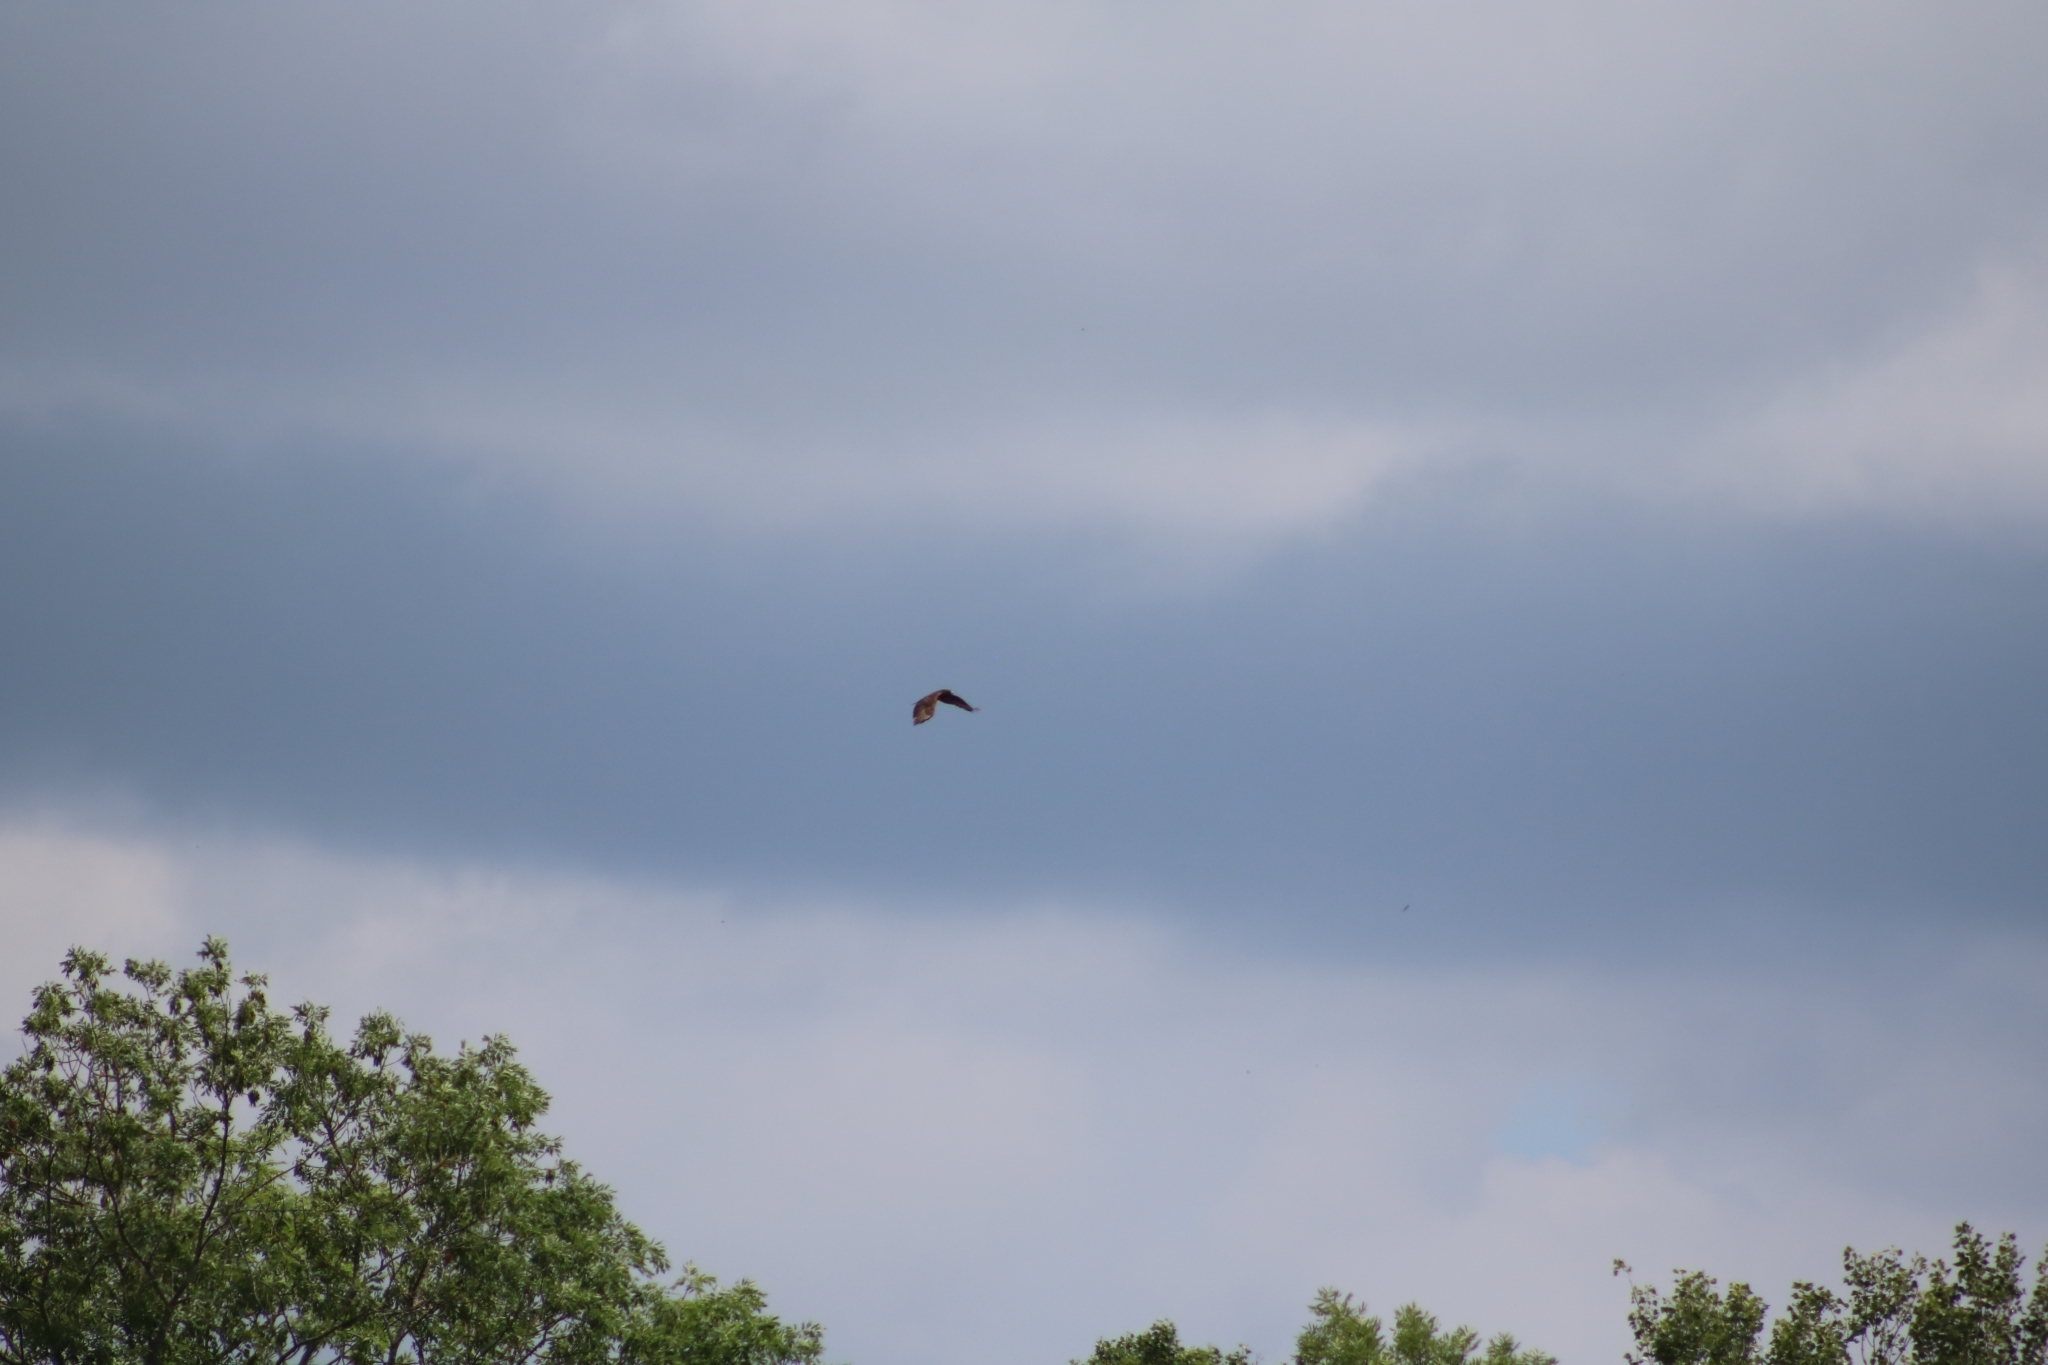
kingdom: Animalia
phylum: Chordata
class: Aves
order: Accipitriformes
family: Accipitridae
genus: Buteo
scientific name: Buteo buteo
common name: Common buzzard
